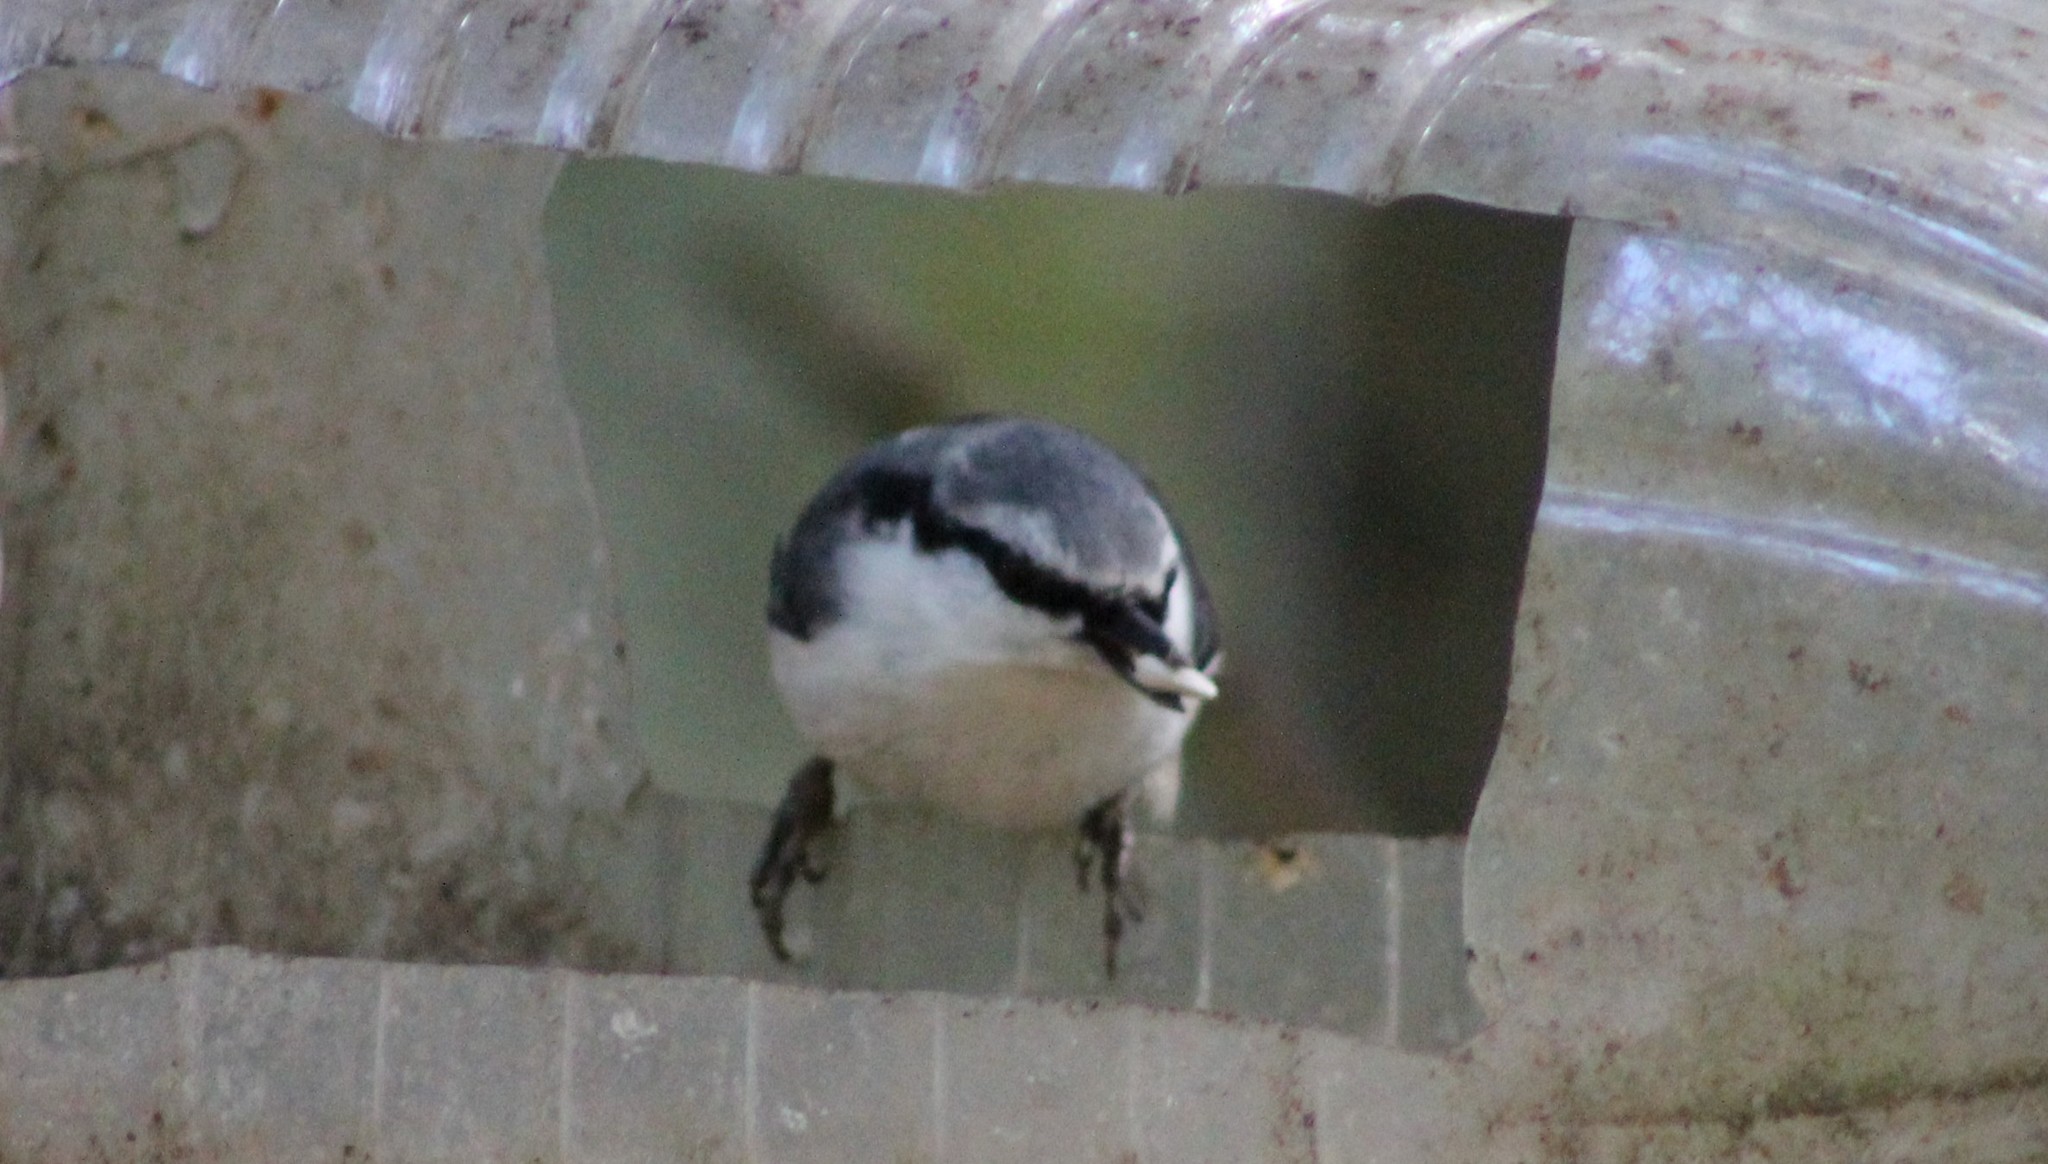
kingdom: Animalia
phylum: Chordata
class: Aves
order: Passeriformes
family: Sittidae
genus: Sitta
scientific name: Sitta europaea
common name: Eurasian nuthatch
